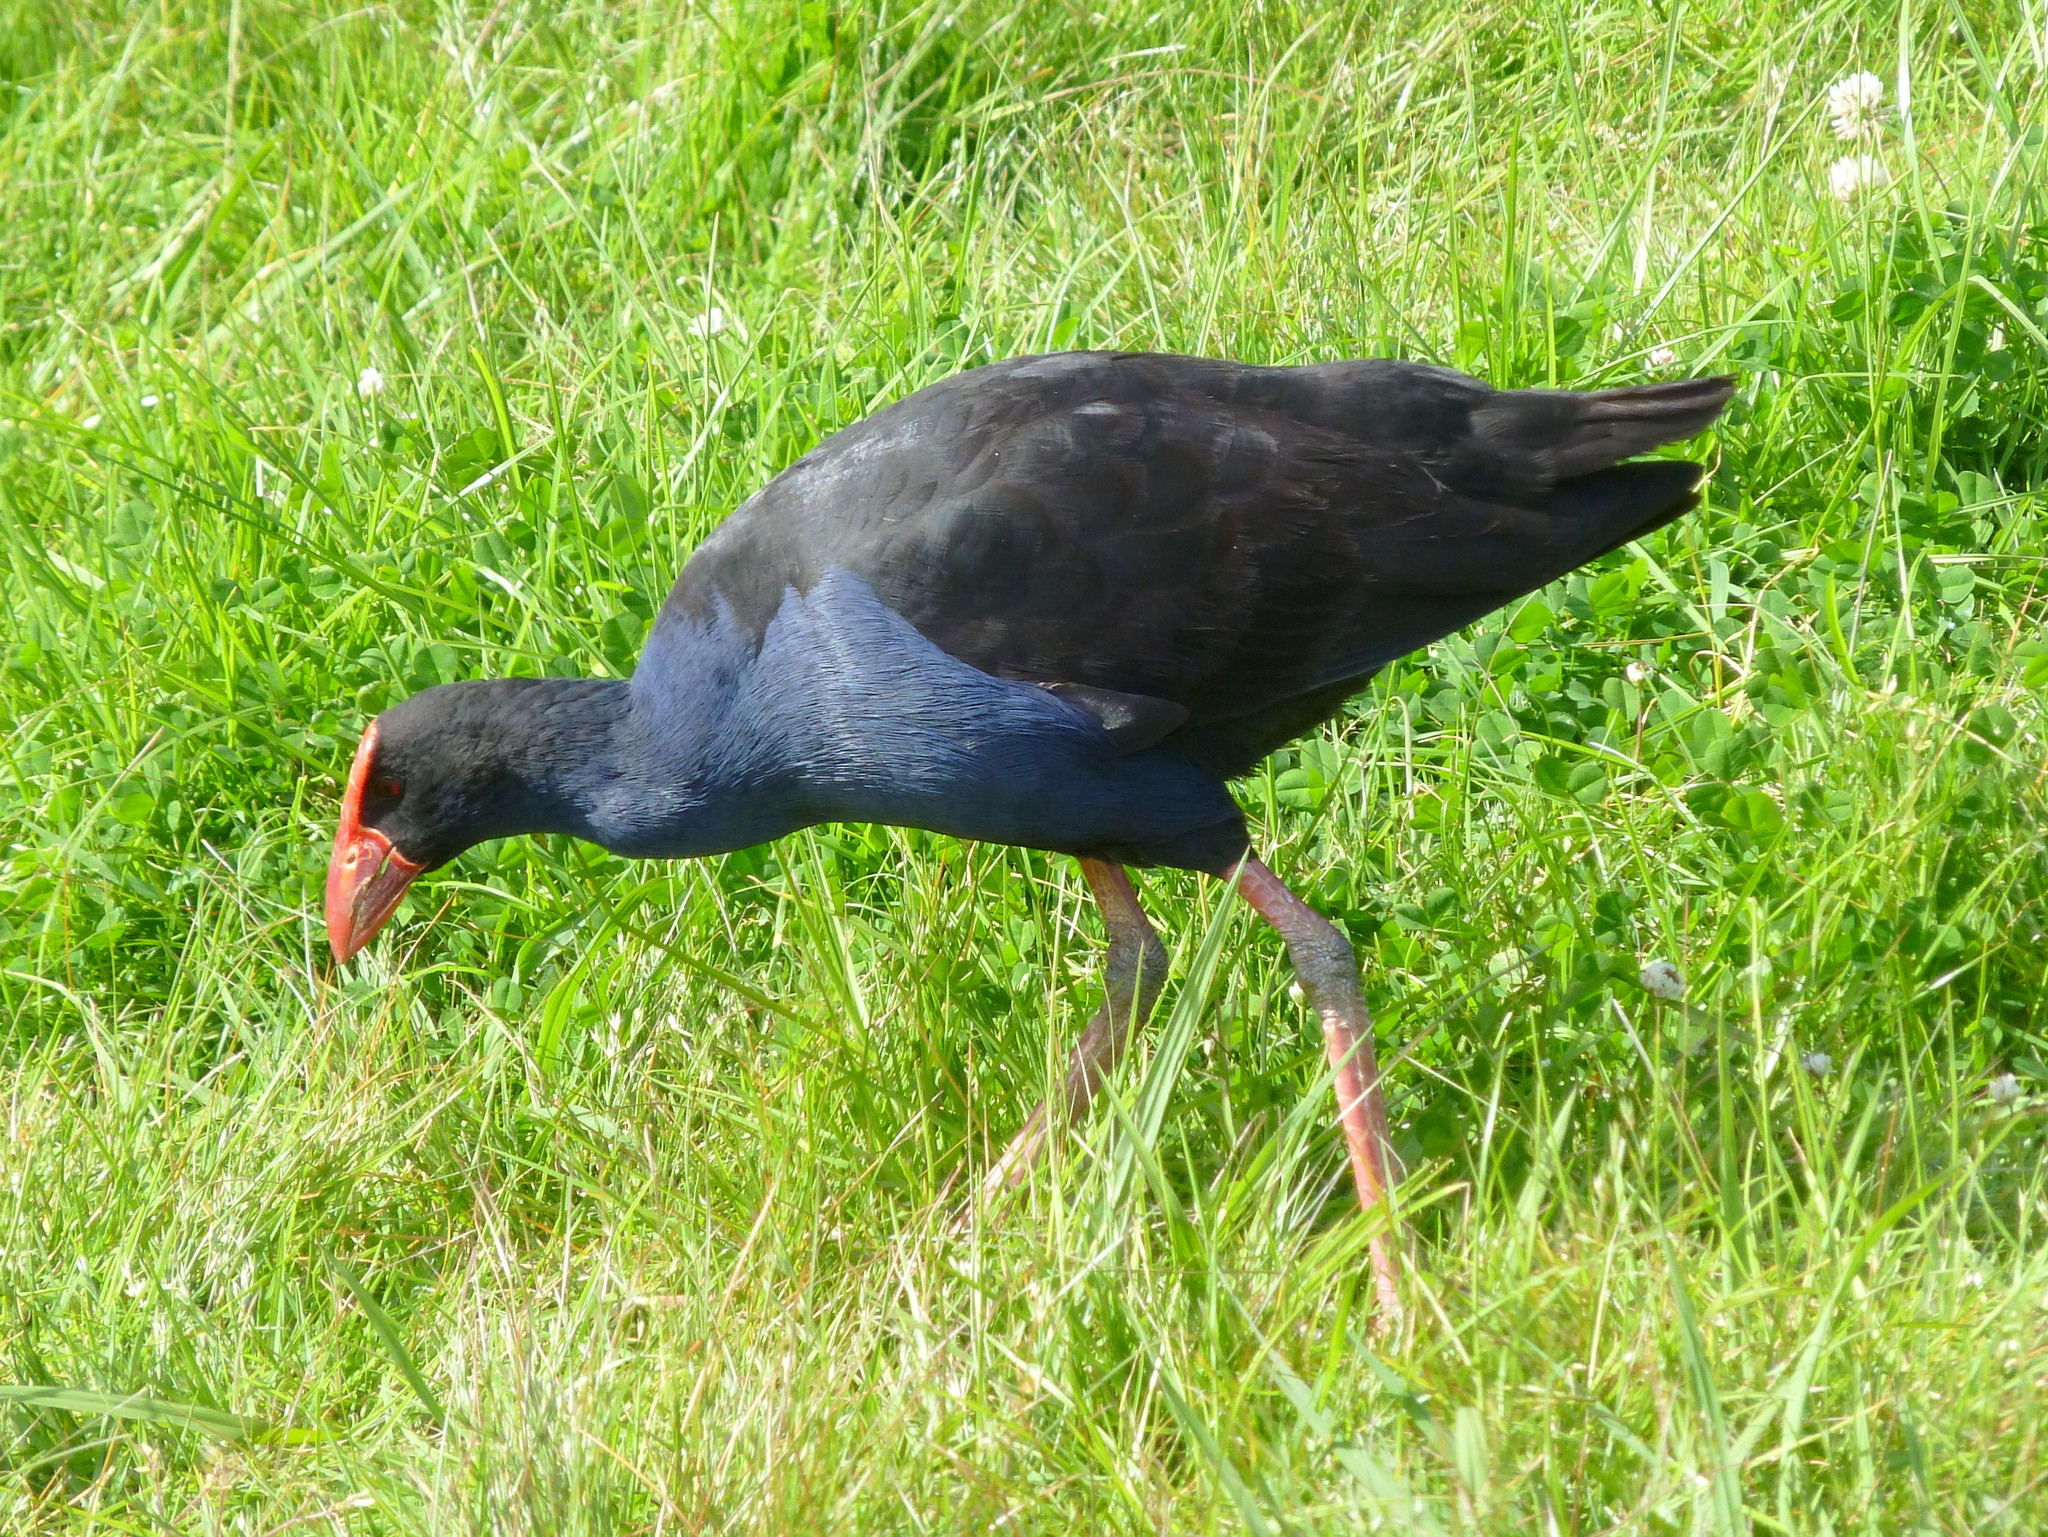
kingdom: Animalia
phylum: Chordata
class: Aves
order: Gruiformes
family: Rallidae
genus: Porphyrio
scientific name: Porphyrio melanotus
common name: Australasian swamphen
